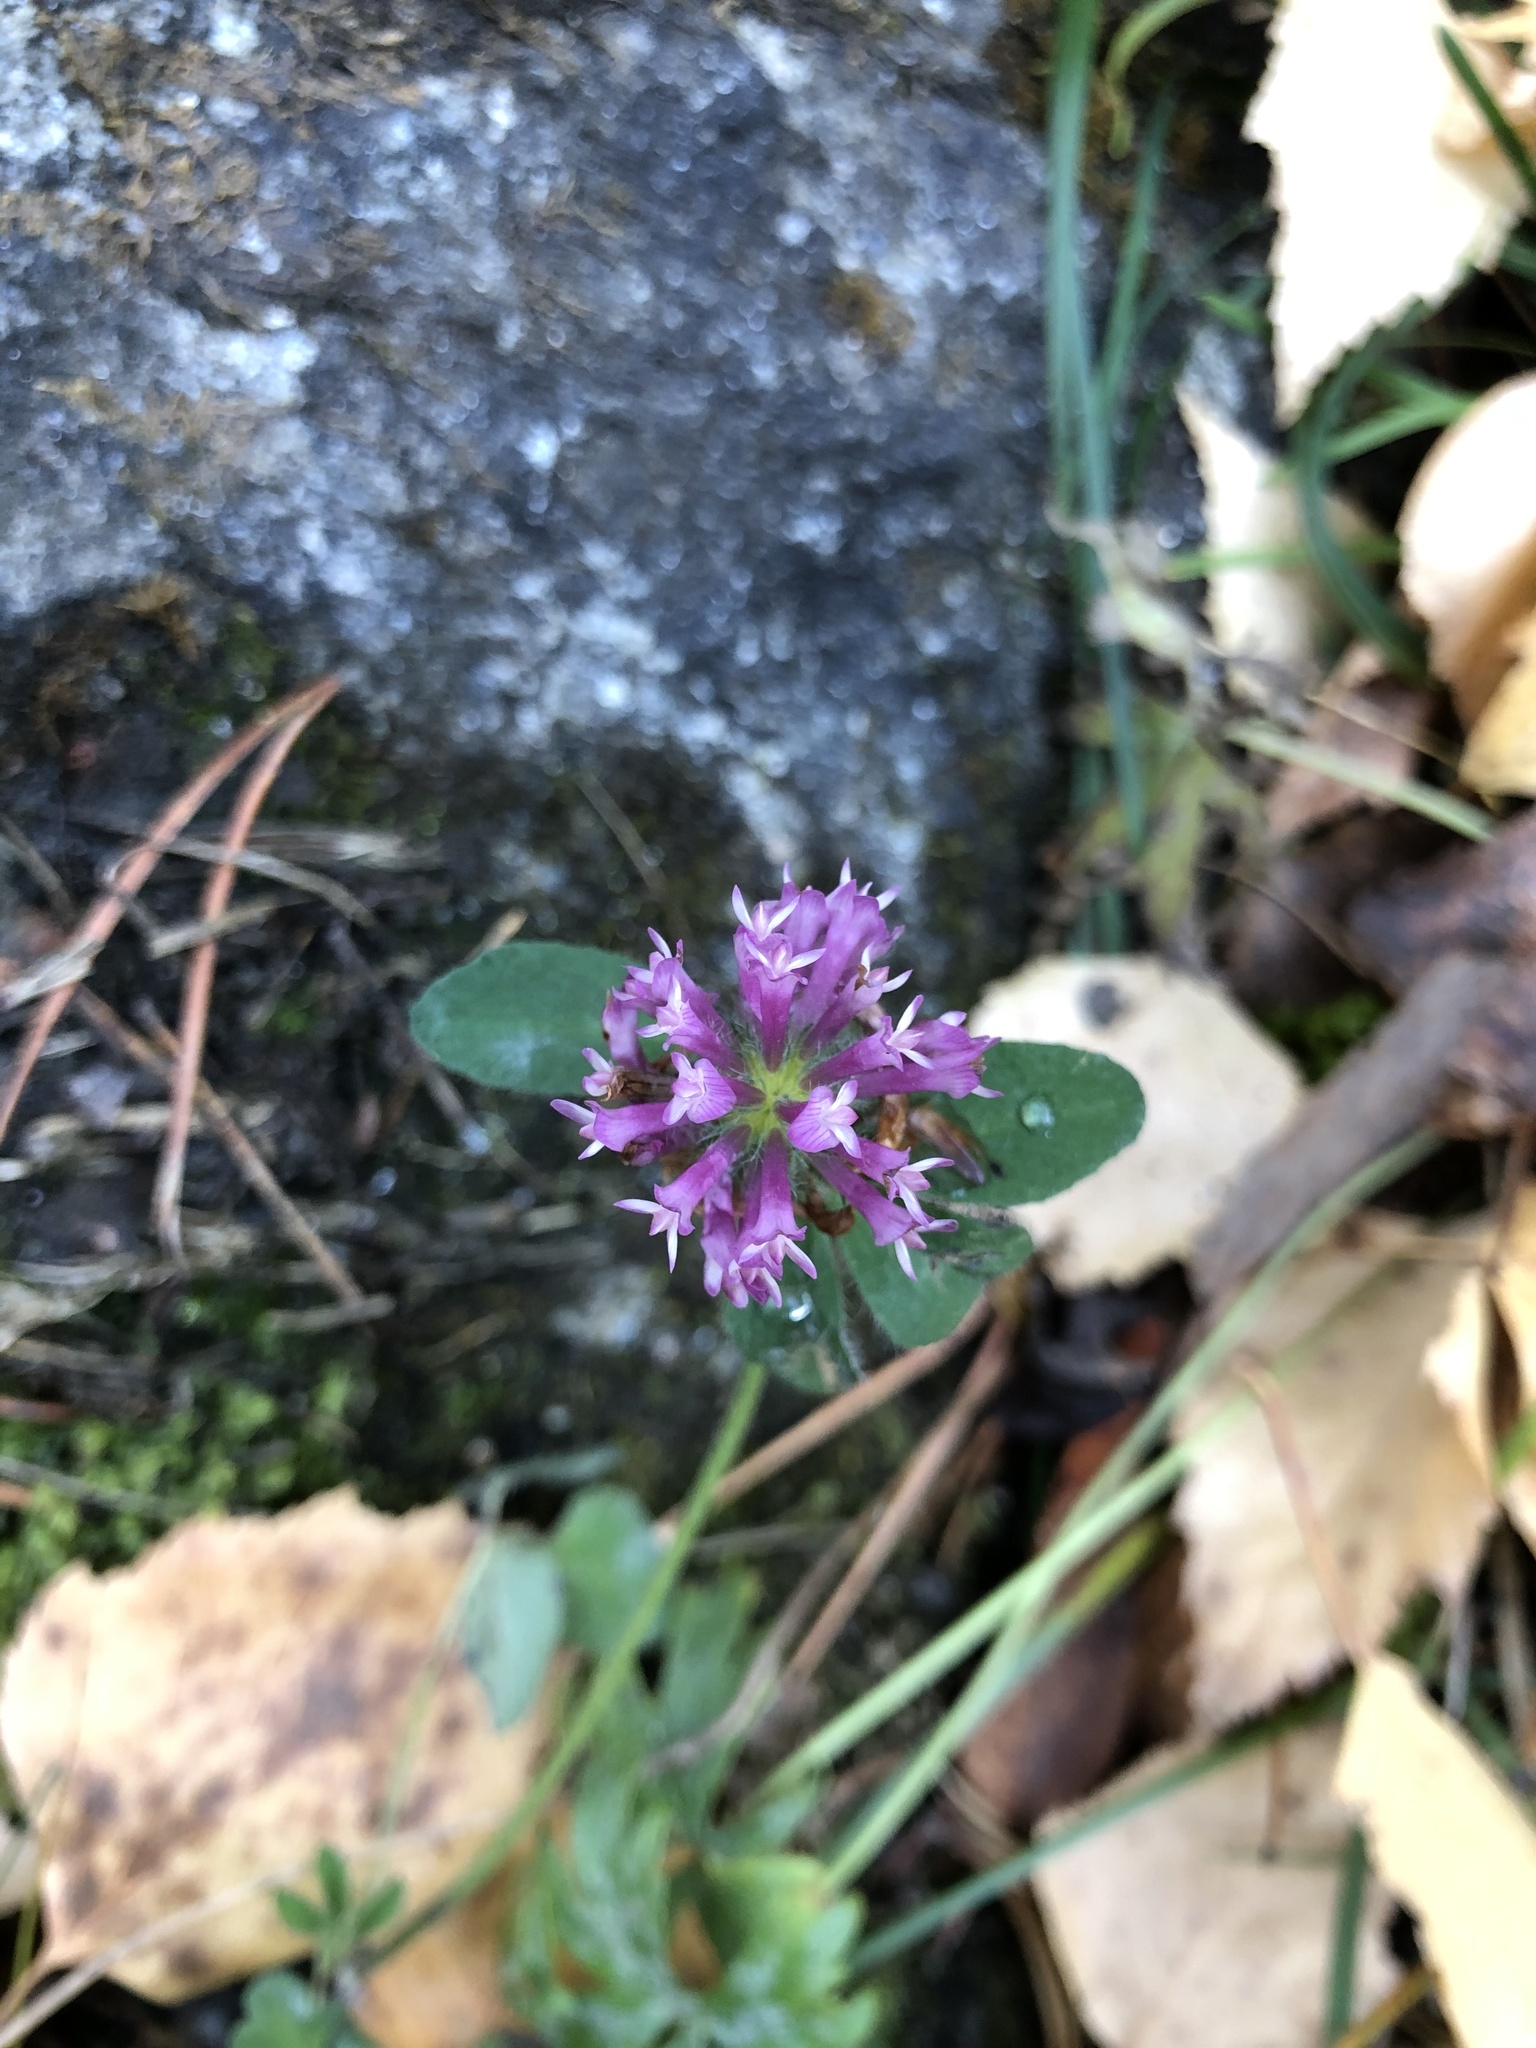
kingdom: Plantae
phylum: Tracheophyta
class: Magnoliopsida
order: Fabales
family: Fabaceae
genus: Trifolium
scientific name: Trifolium pratense
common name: Red clover
